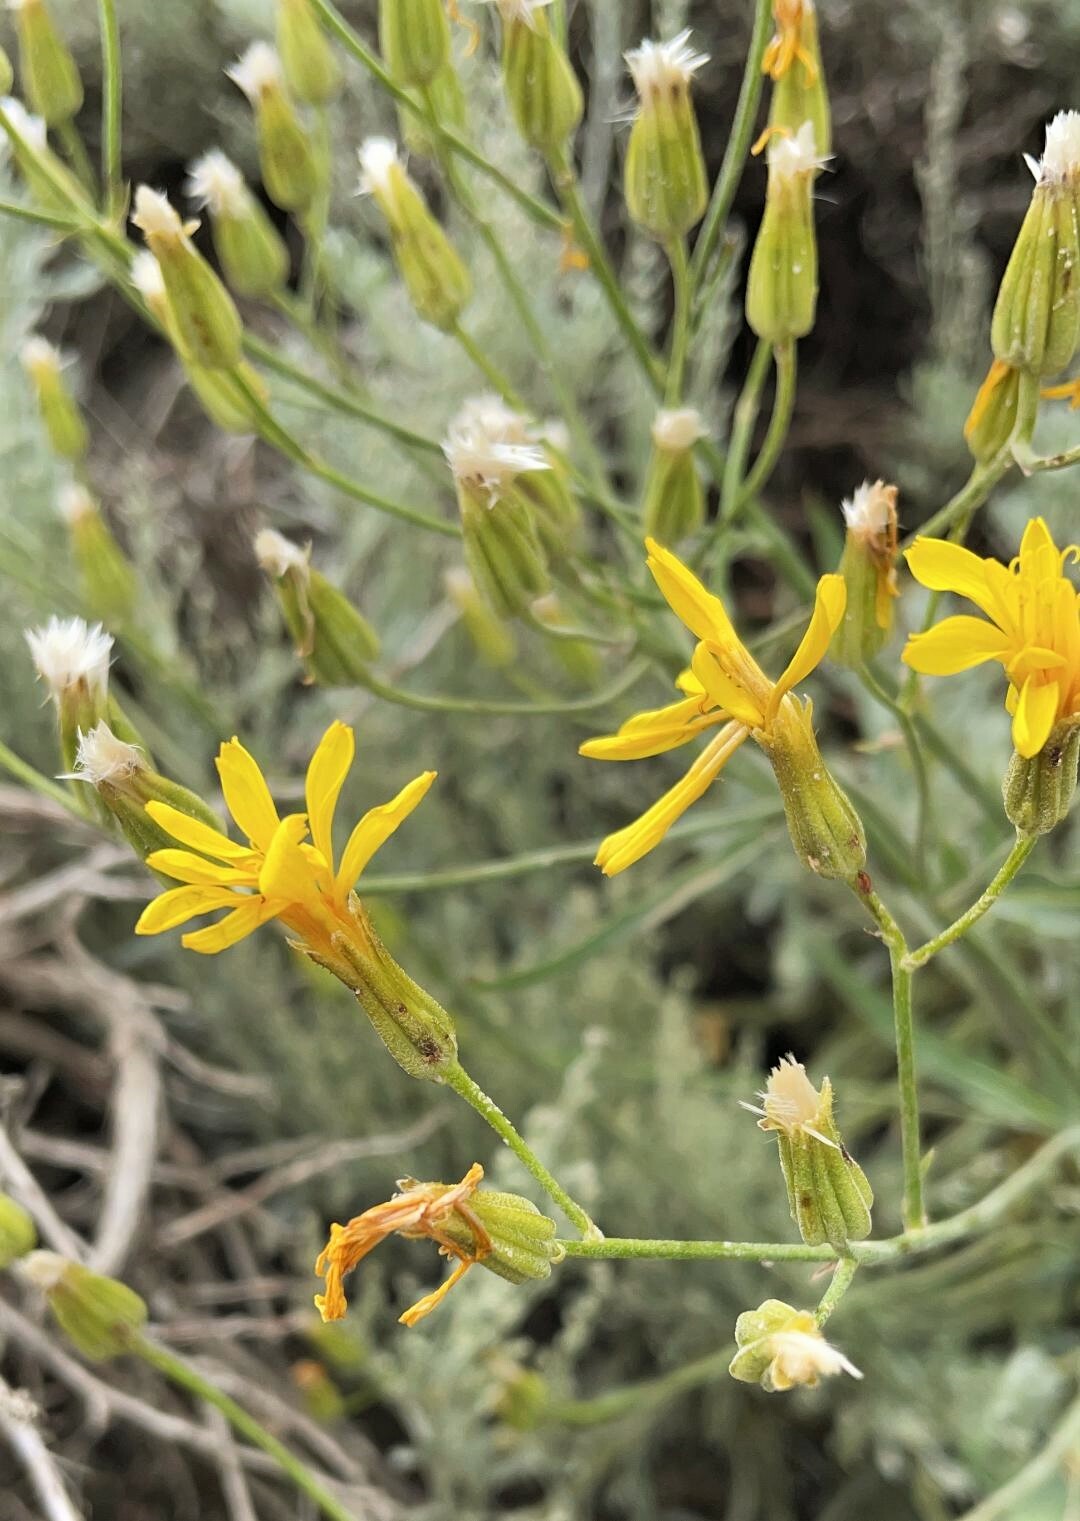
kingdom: Plantae
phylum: Tracheophyta
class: Magnoliopsida
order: Asterales
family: Asteraceae
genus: Crepis
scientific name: Crepis intermedia
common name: Limestone hawk's-beard
